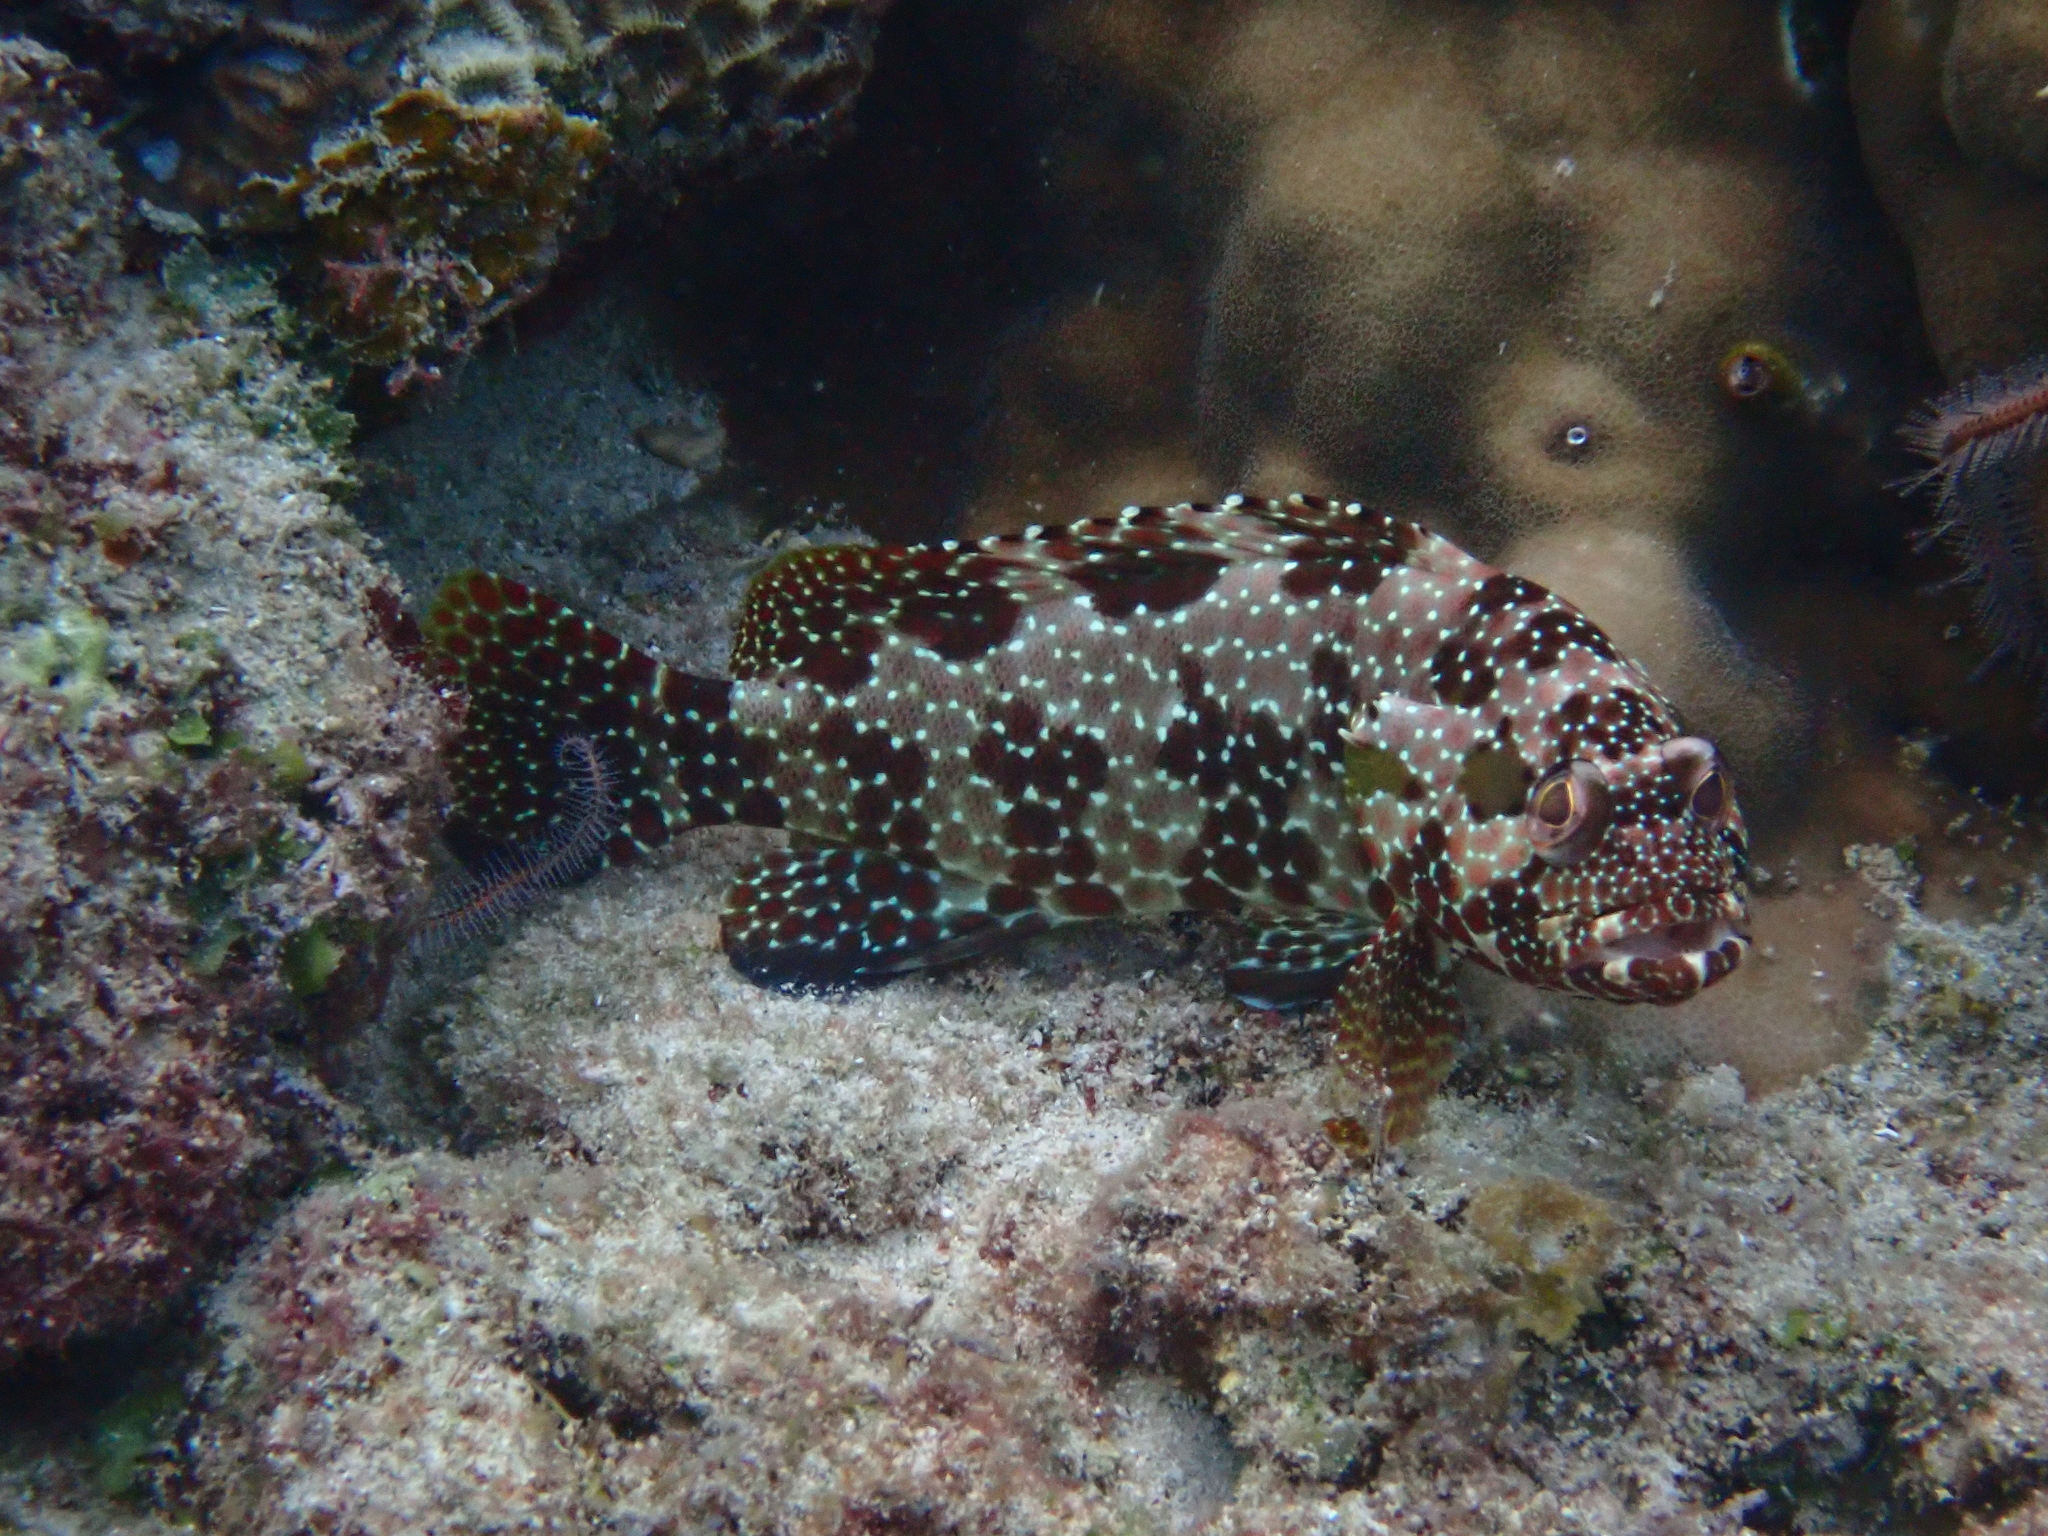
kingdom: Animalia
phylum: Chordata
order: Perciformes
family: Serranidae
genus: Epinephelus
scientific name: Epinephelus hexagonatus
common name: Hexagon grouper
